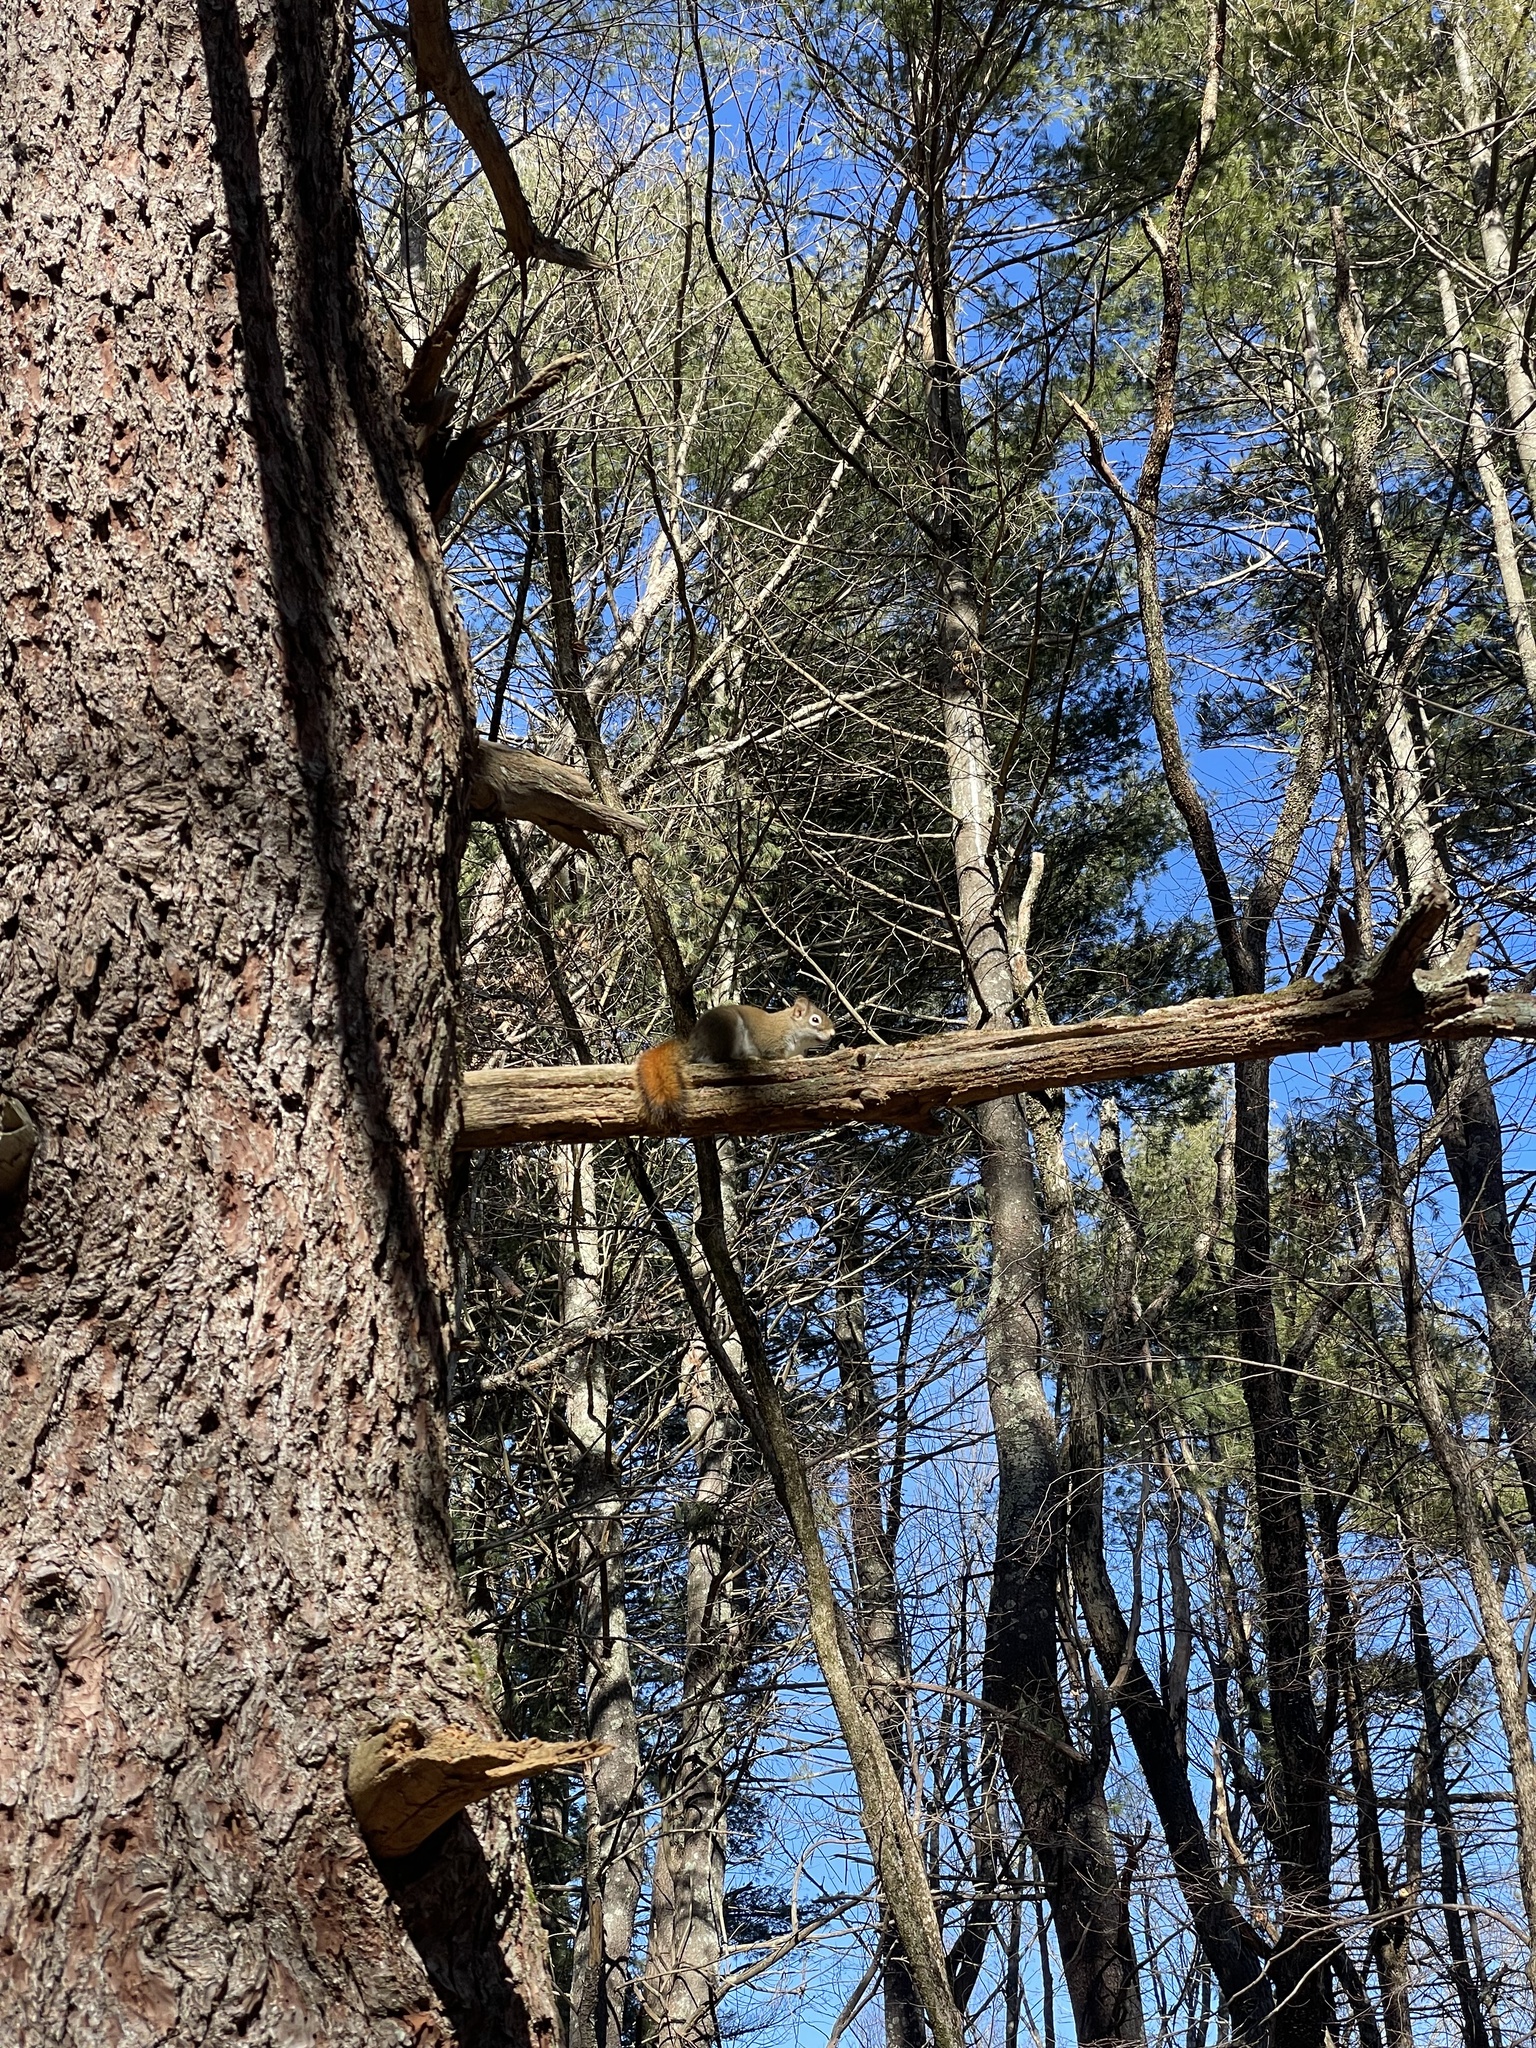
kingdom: Animalia
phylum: Chordata
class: Mammalia
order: Rodentia
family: Sciuridae
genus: Tamiasciurus
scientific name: Tamiasciurus hudsonicus
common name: Red squirrel
